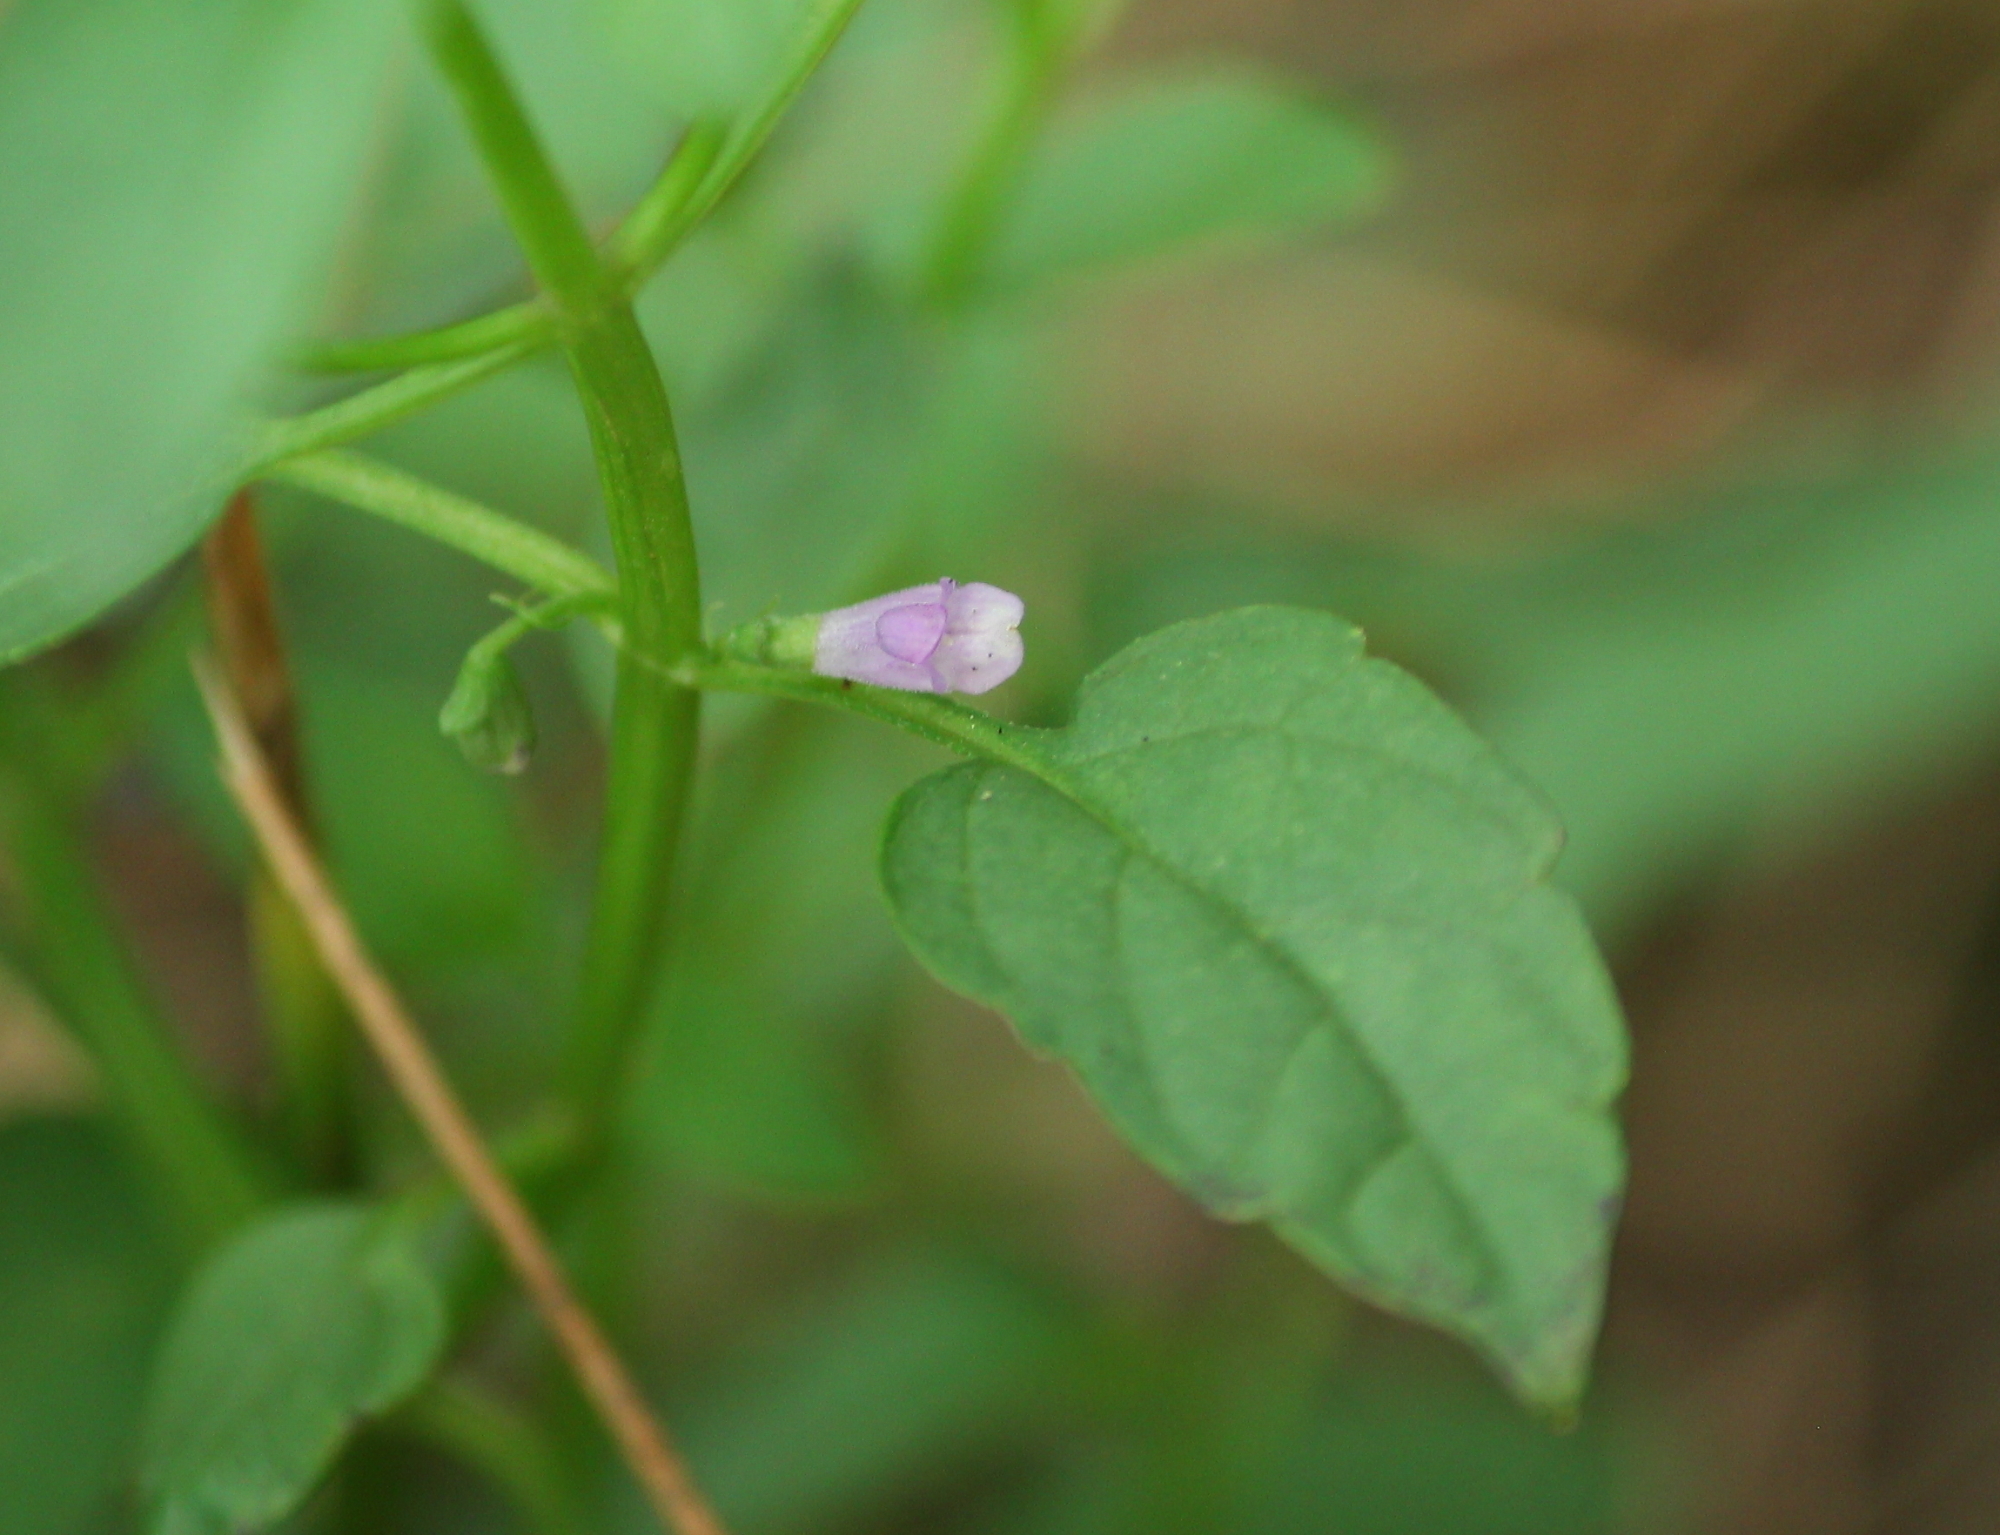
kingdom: Plantae
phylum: Tracheophyta
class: Magnoliopsida
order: Lamiales
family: Lamiaceae
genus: Scutellaria
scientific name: Scutellaria lateriflora
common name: Blue skullcap
